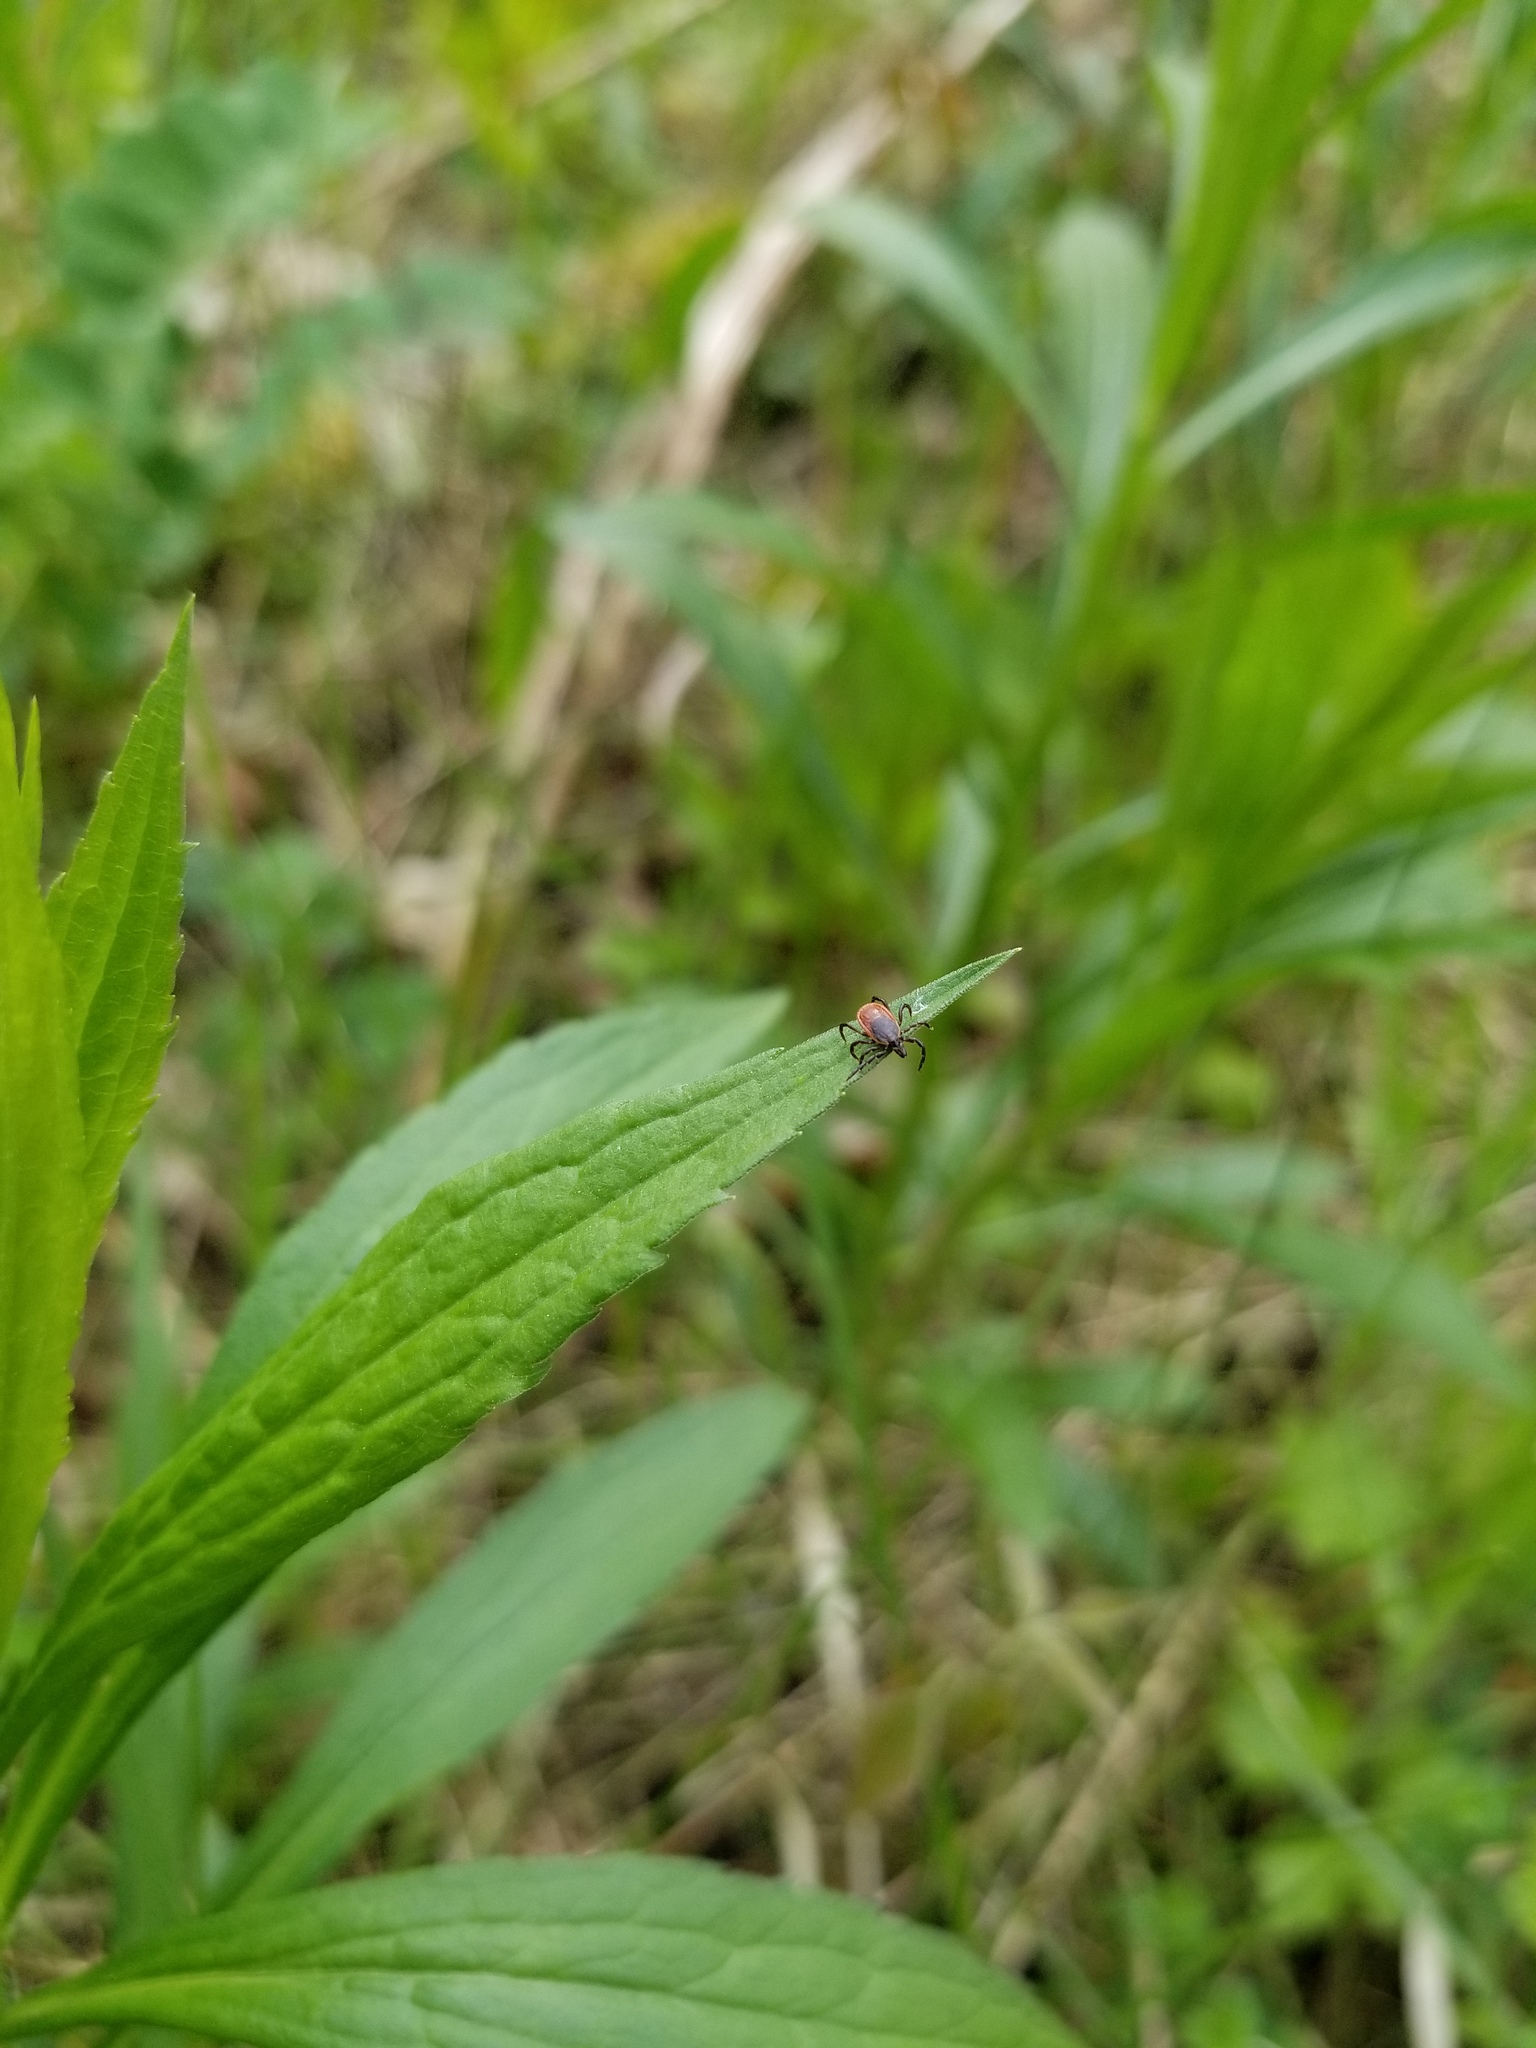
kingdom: Animalia
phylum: Arthropoda
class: Arachnida
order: Ixodida
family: Ixodidae
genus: Ixodes
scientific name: Ixodes scapularis
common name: Black legged tick
